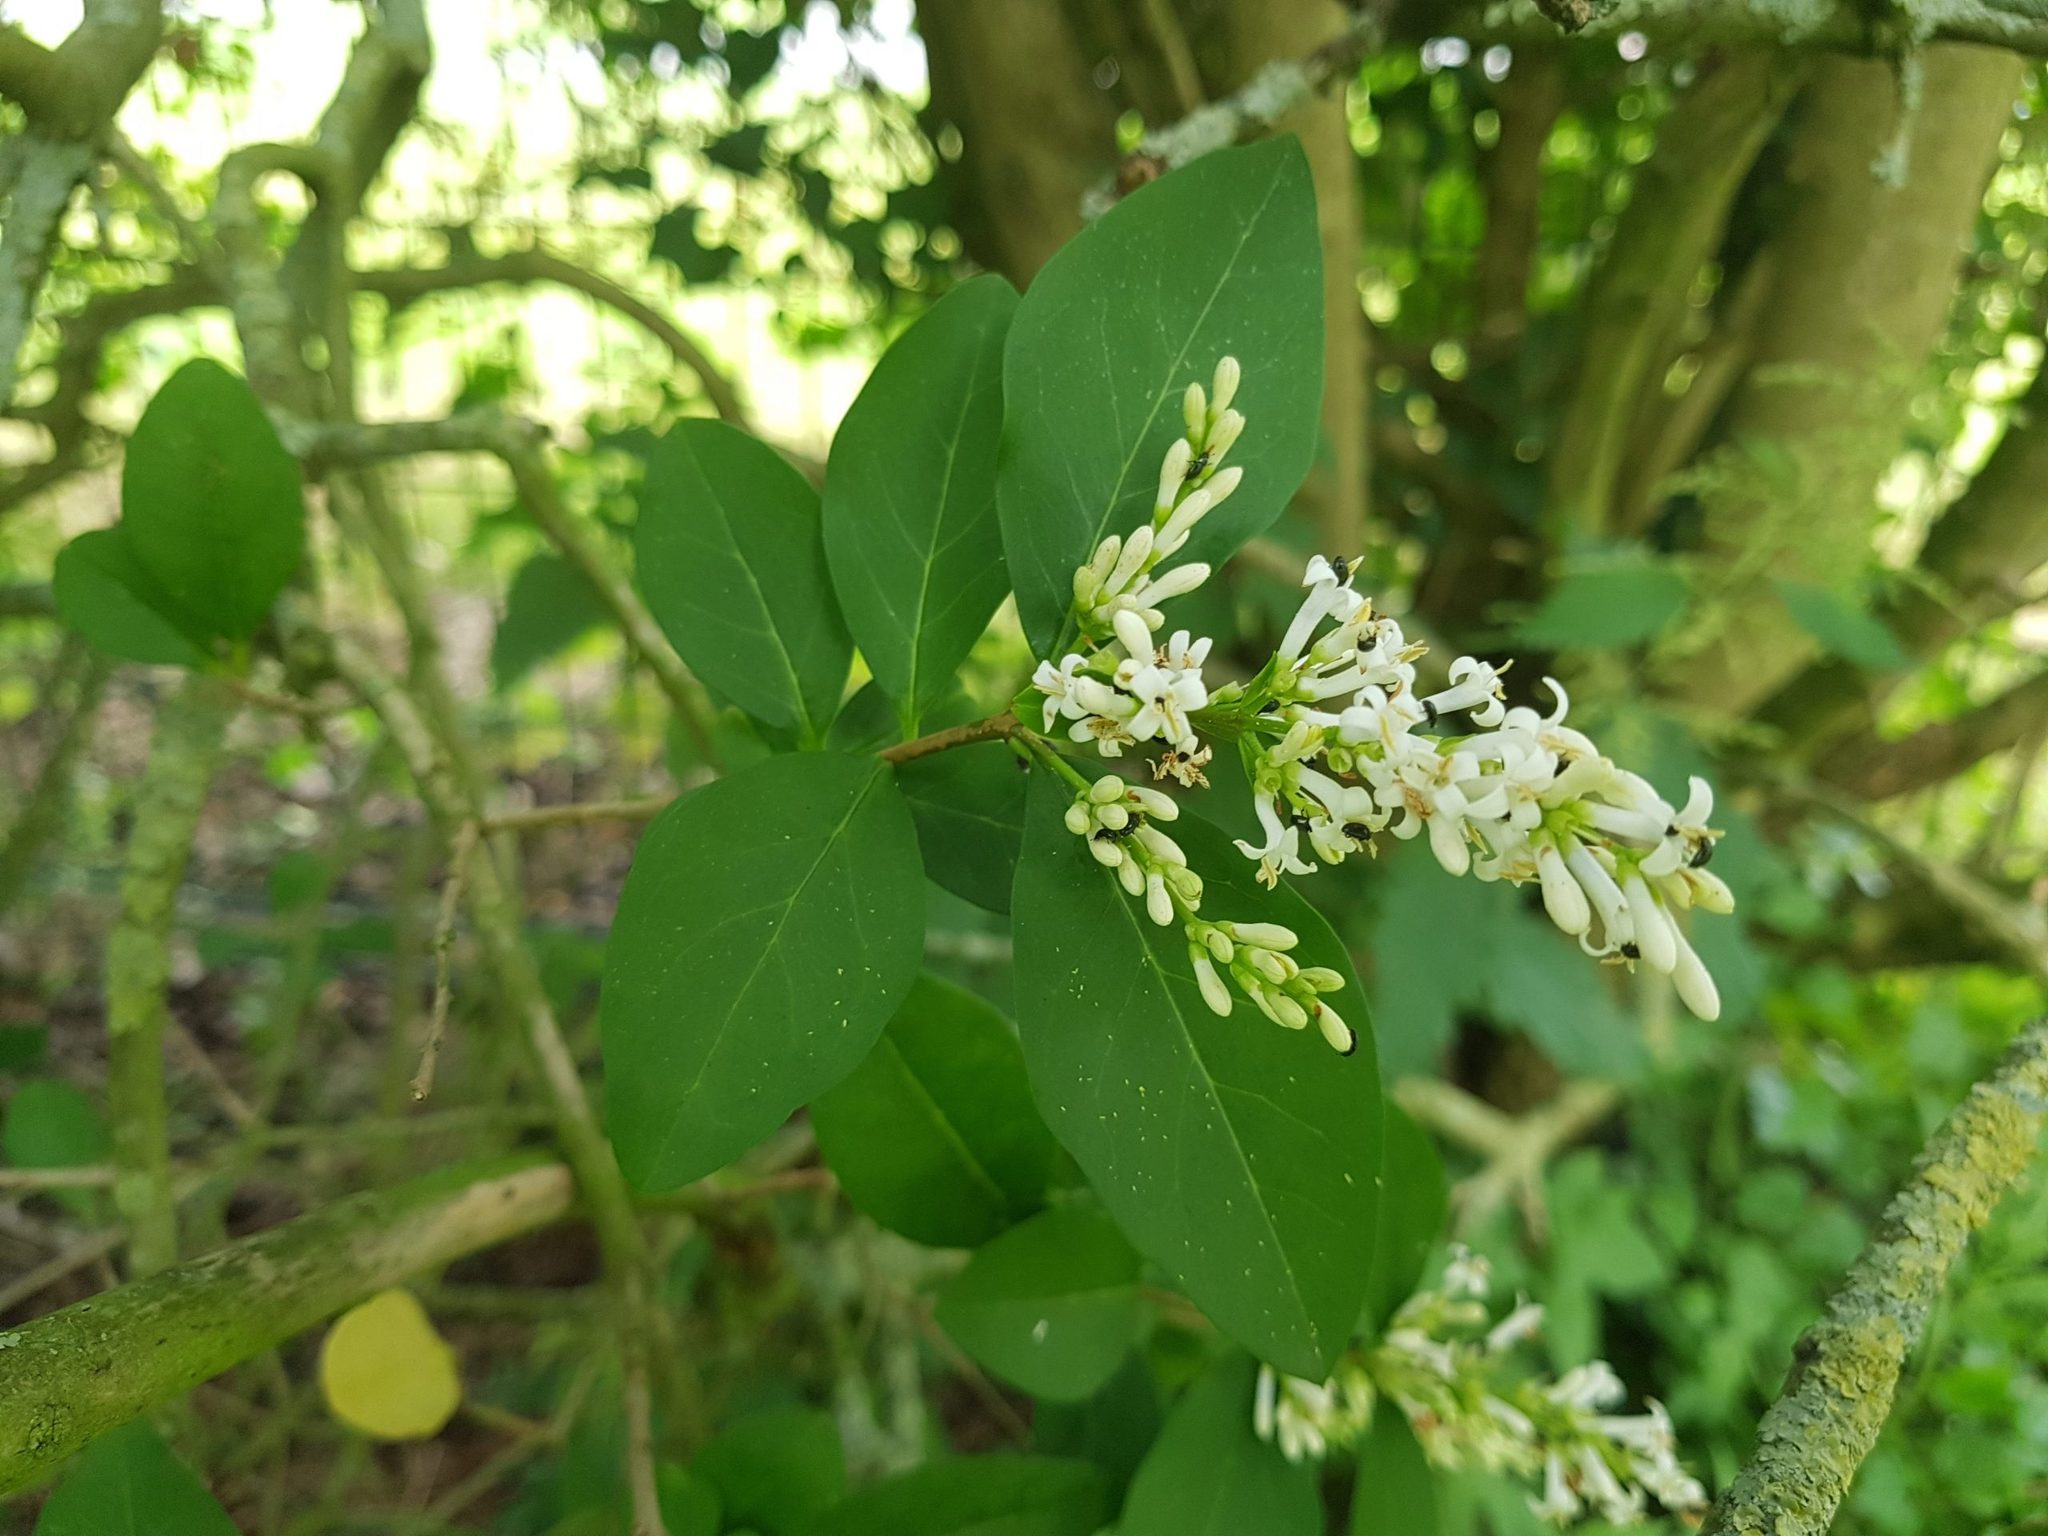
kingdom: Plantae
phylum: Tracheophyta
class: Magnoliopsida
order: Lamiales
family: Oleaceae
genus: Ligustrum
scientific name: Ligustrum vulgare
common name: Wild privet
